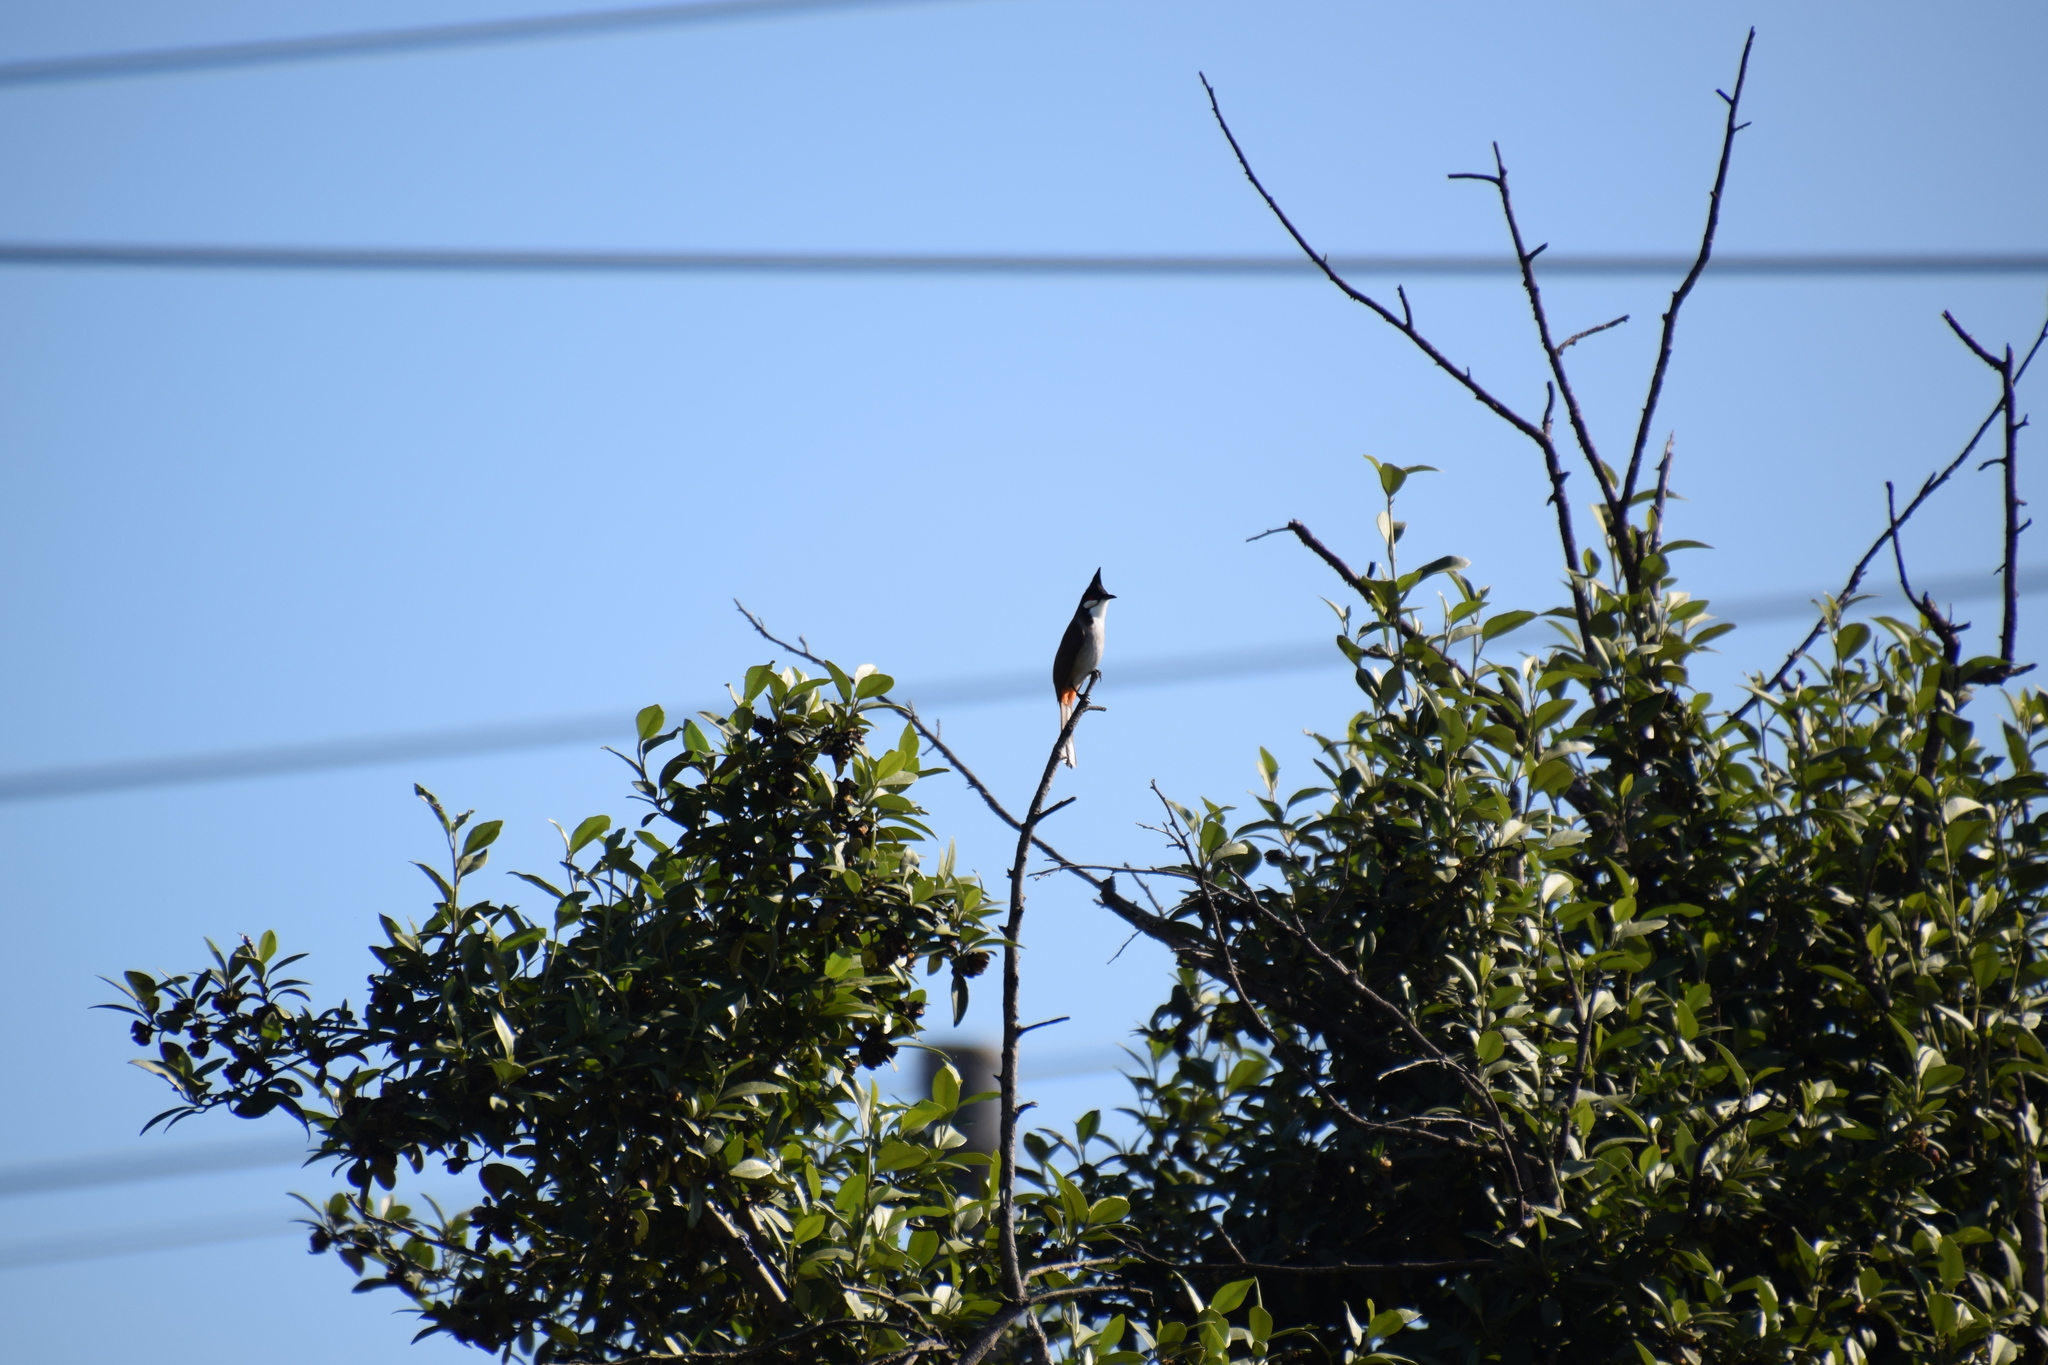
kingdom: Animalia
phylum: Chordata
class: Aves
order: Passeriformes
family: Pycnonotidae
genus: Pycnonotus
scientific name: Pycnonotus jocosus
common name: Red-whiskered bulbul
